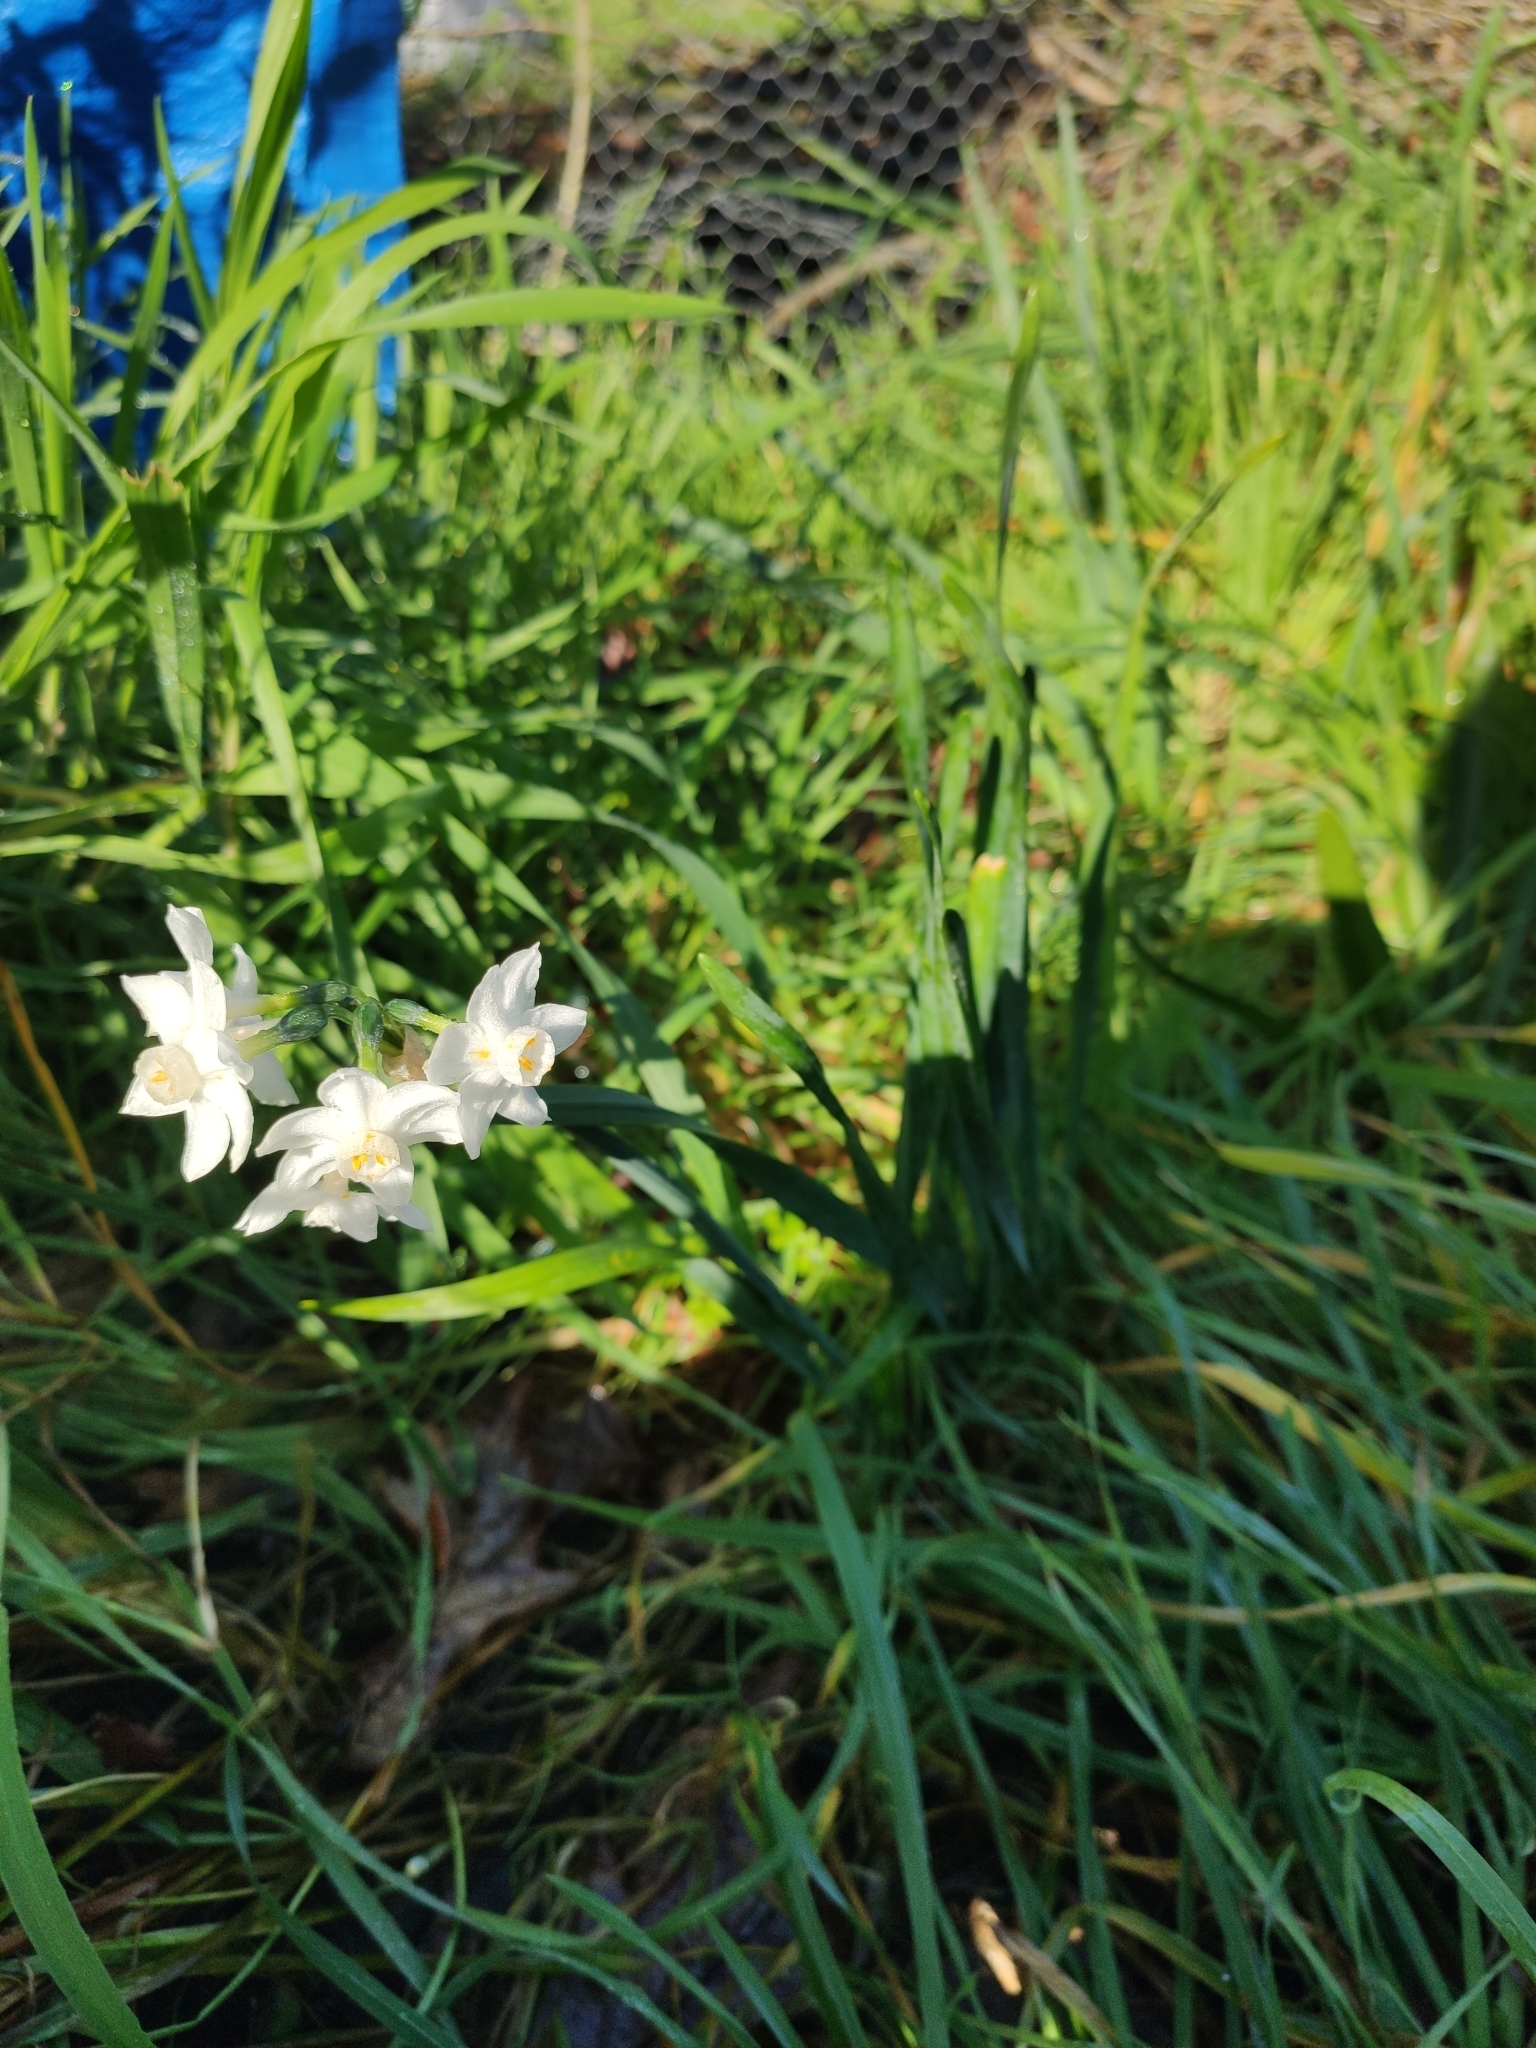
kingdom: Plantae
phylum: Tracheophyta
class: Liliopsida
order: Asparagales
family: Amaryllidaceae
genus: Narcissus
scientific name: Narcissus papyraceus
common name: Paper-white daffodil
